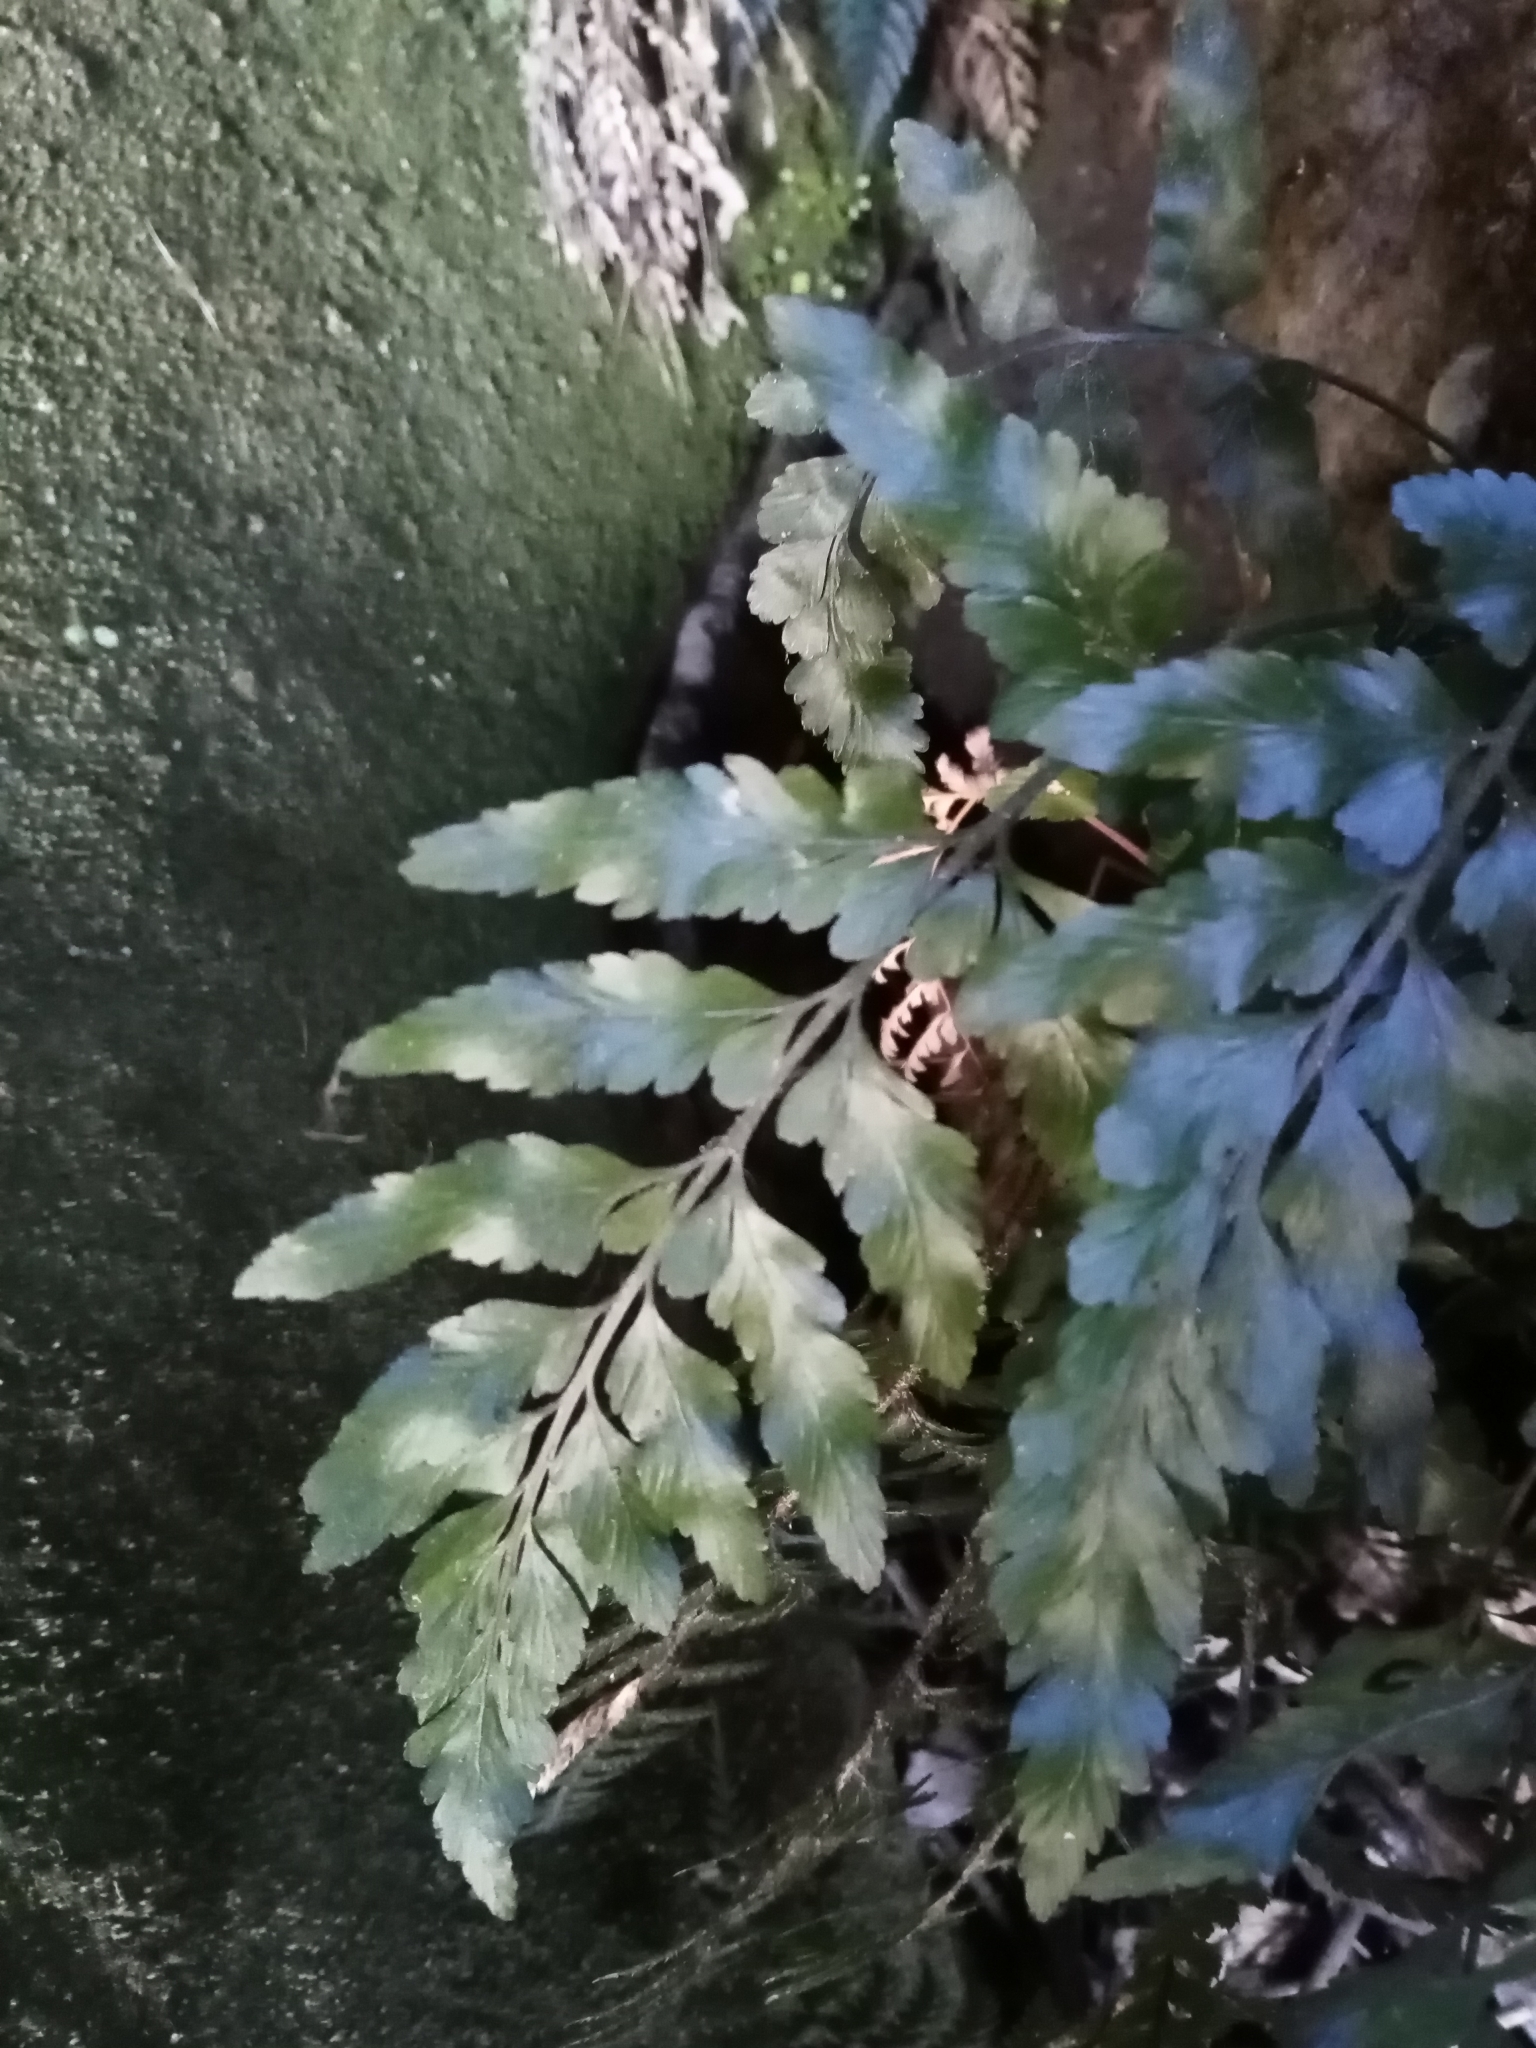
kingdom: Plantae
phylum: Tracheophyta
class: Polypodiopsida
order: Polypodiales
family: Aspleniaceae
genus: Asplenium
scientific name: Asplenium lyallii
